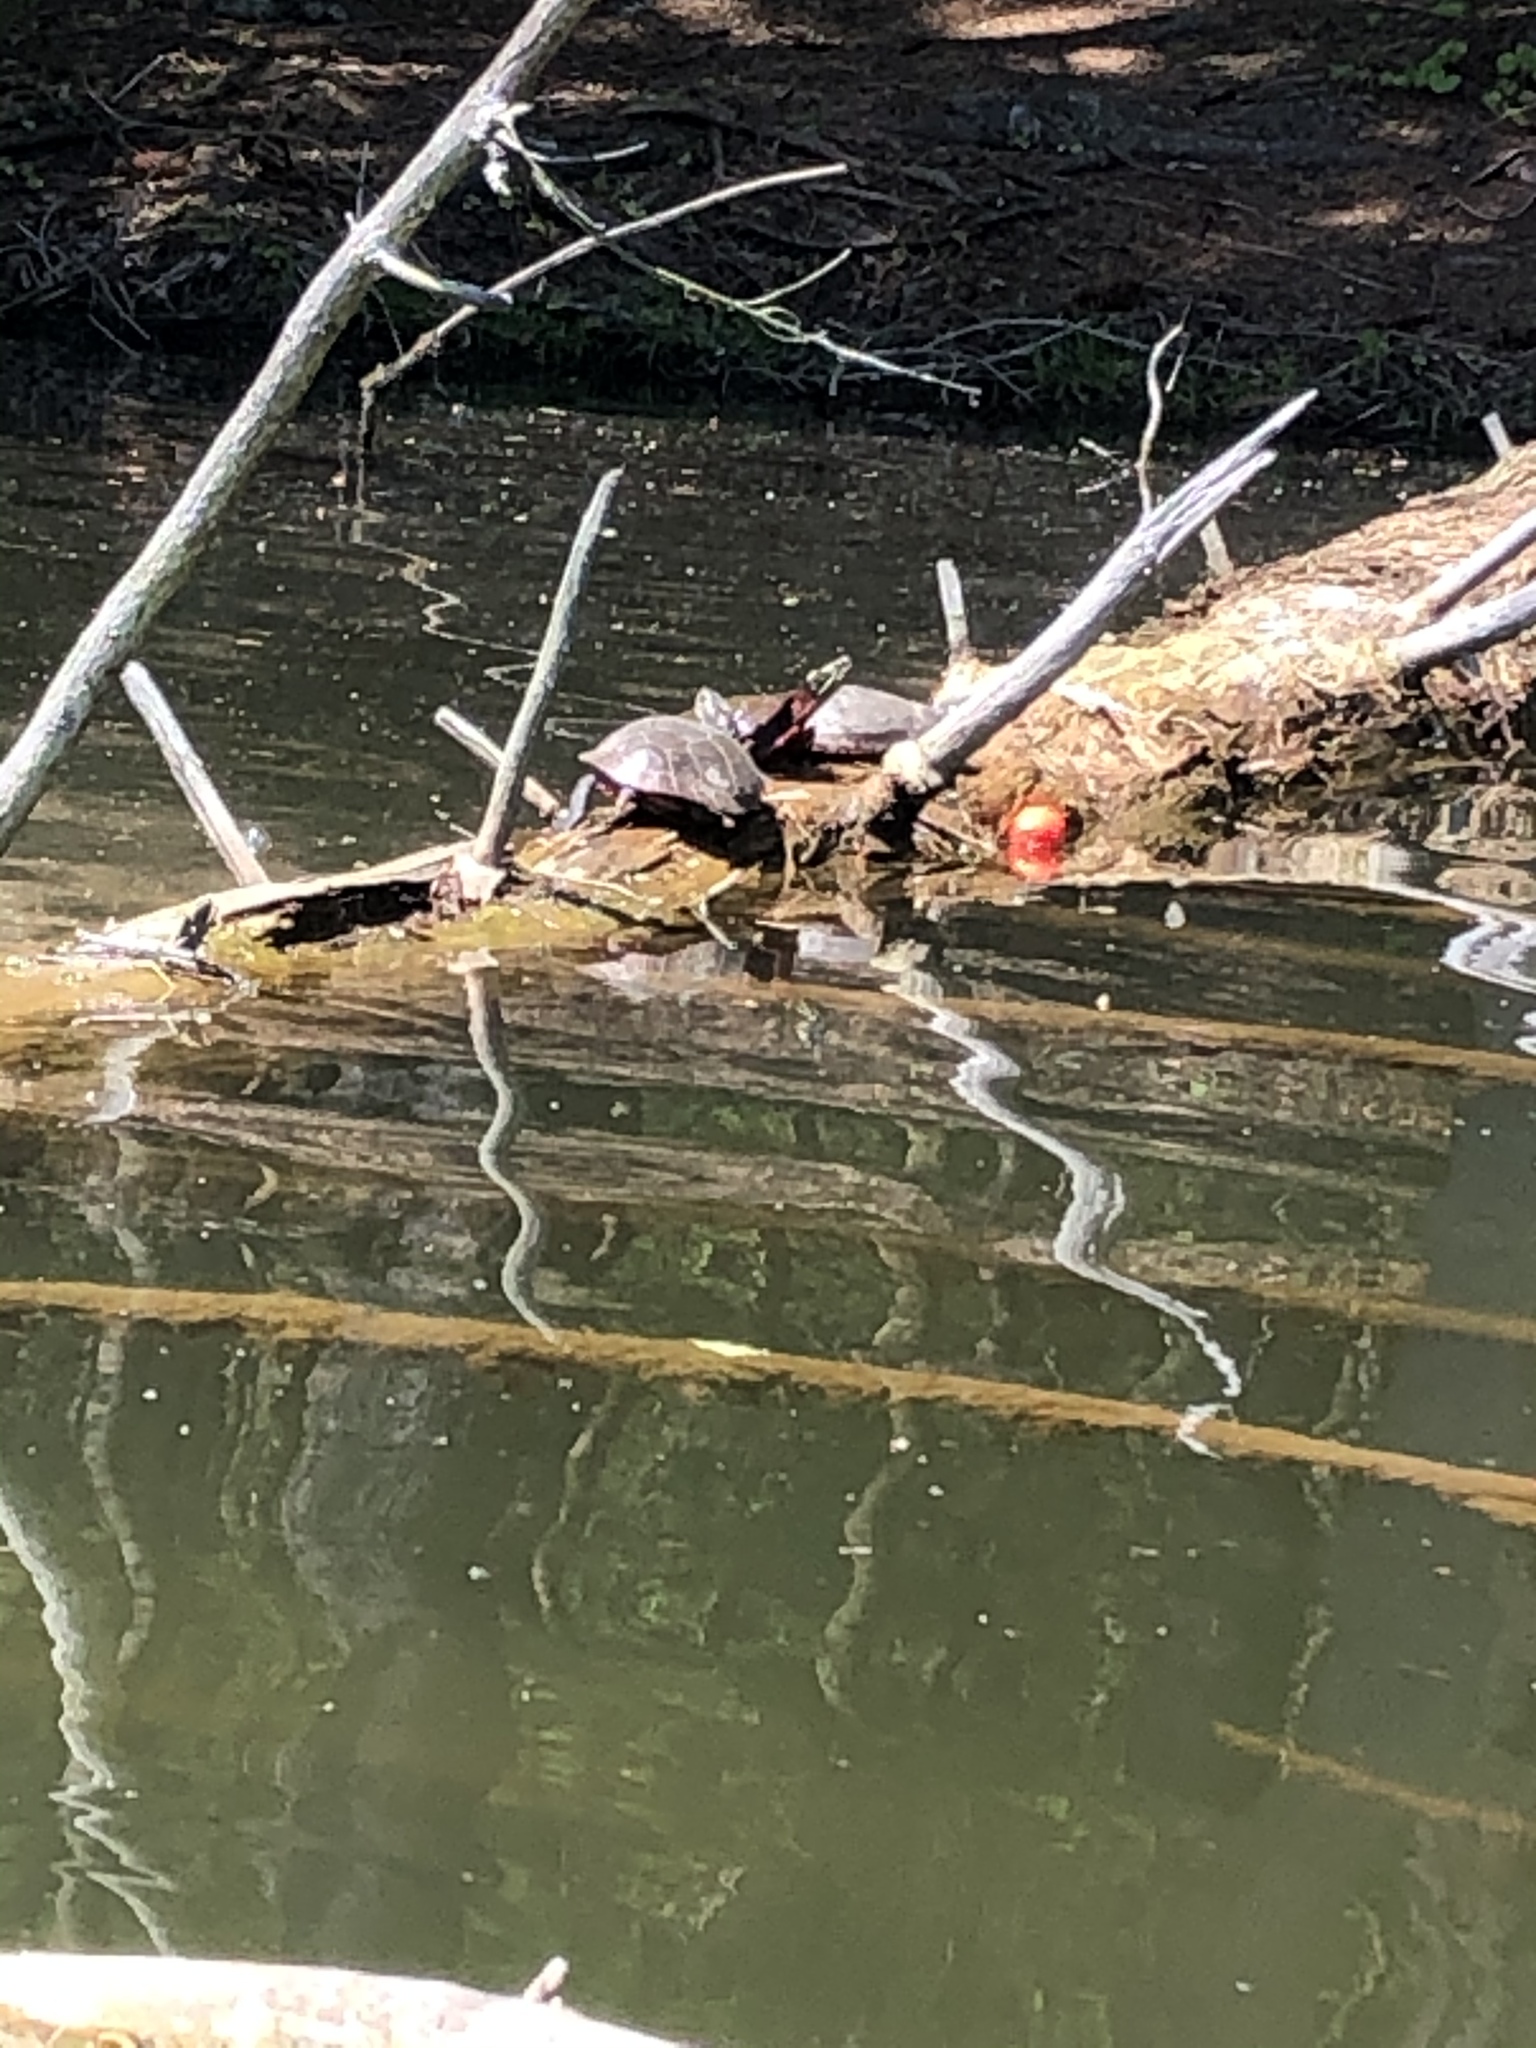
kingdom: Animalia
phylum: Chordata
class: Testudines
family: Emydidae
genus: Chrysemys
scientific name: Chrysemys picta
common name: Painted turtle
